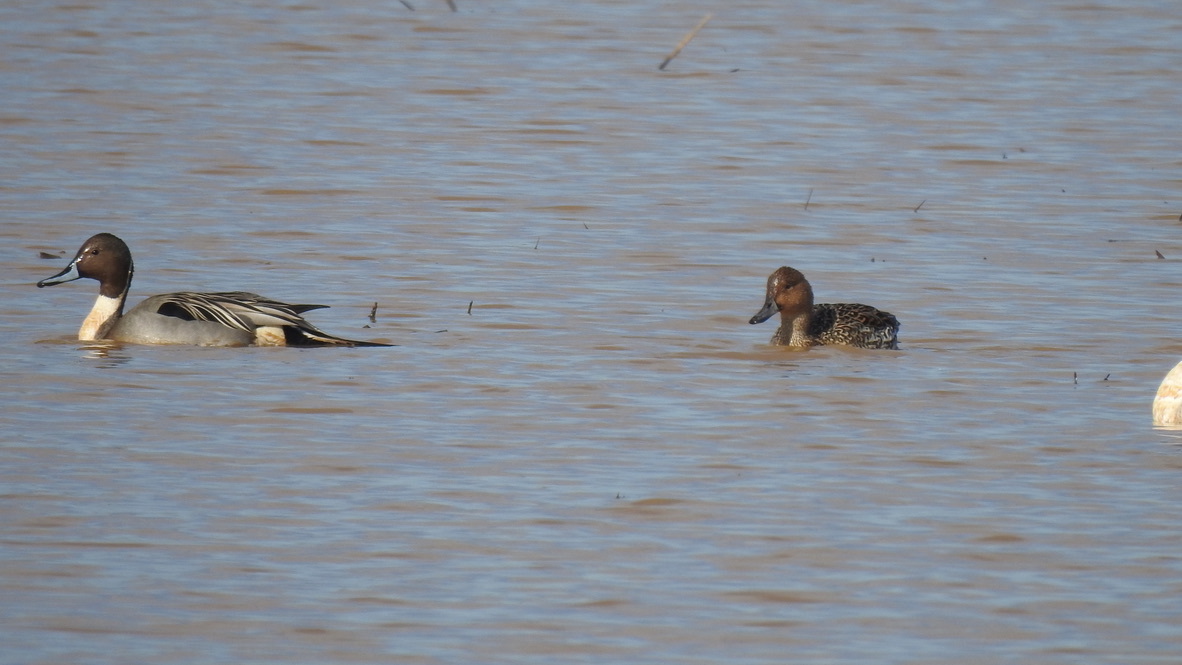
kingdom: Animalia
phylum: Chordata
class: Aves
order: Anseriformes
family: Anatidae
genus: Anas
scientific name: Anas acuta
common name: Northern pintail
